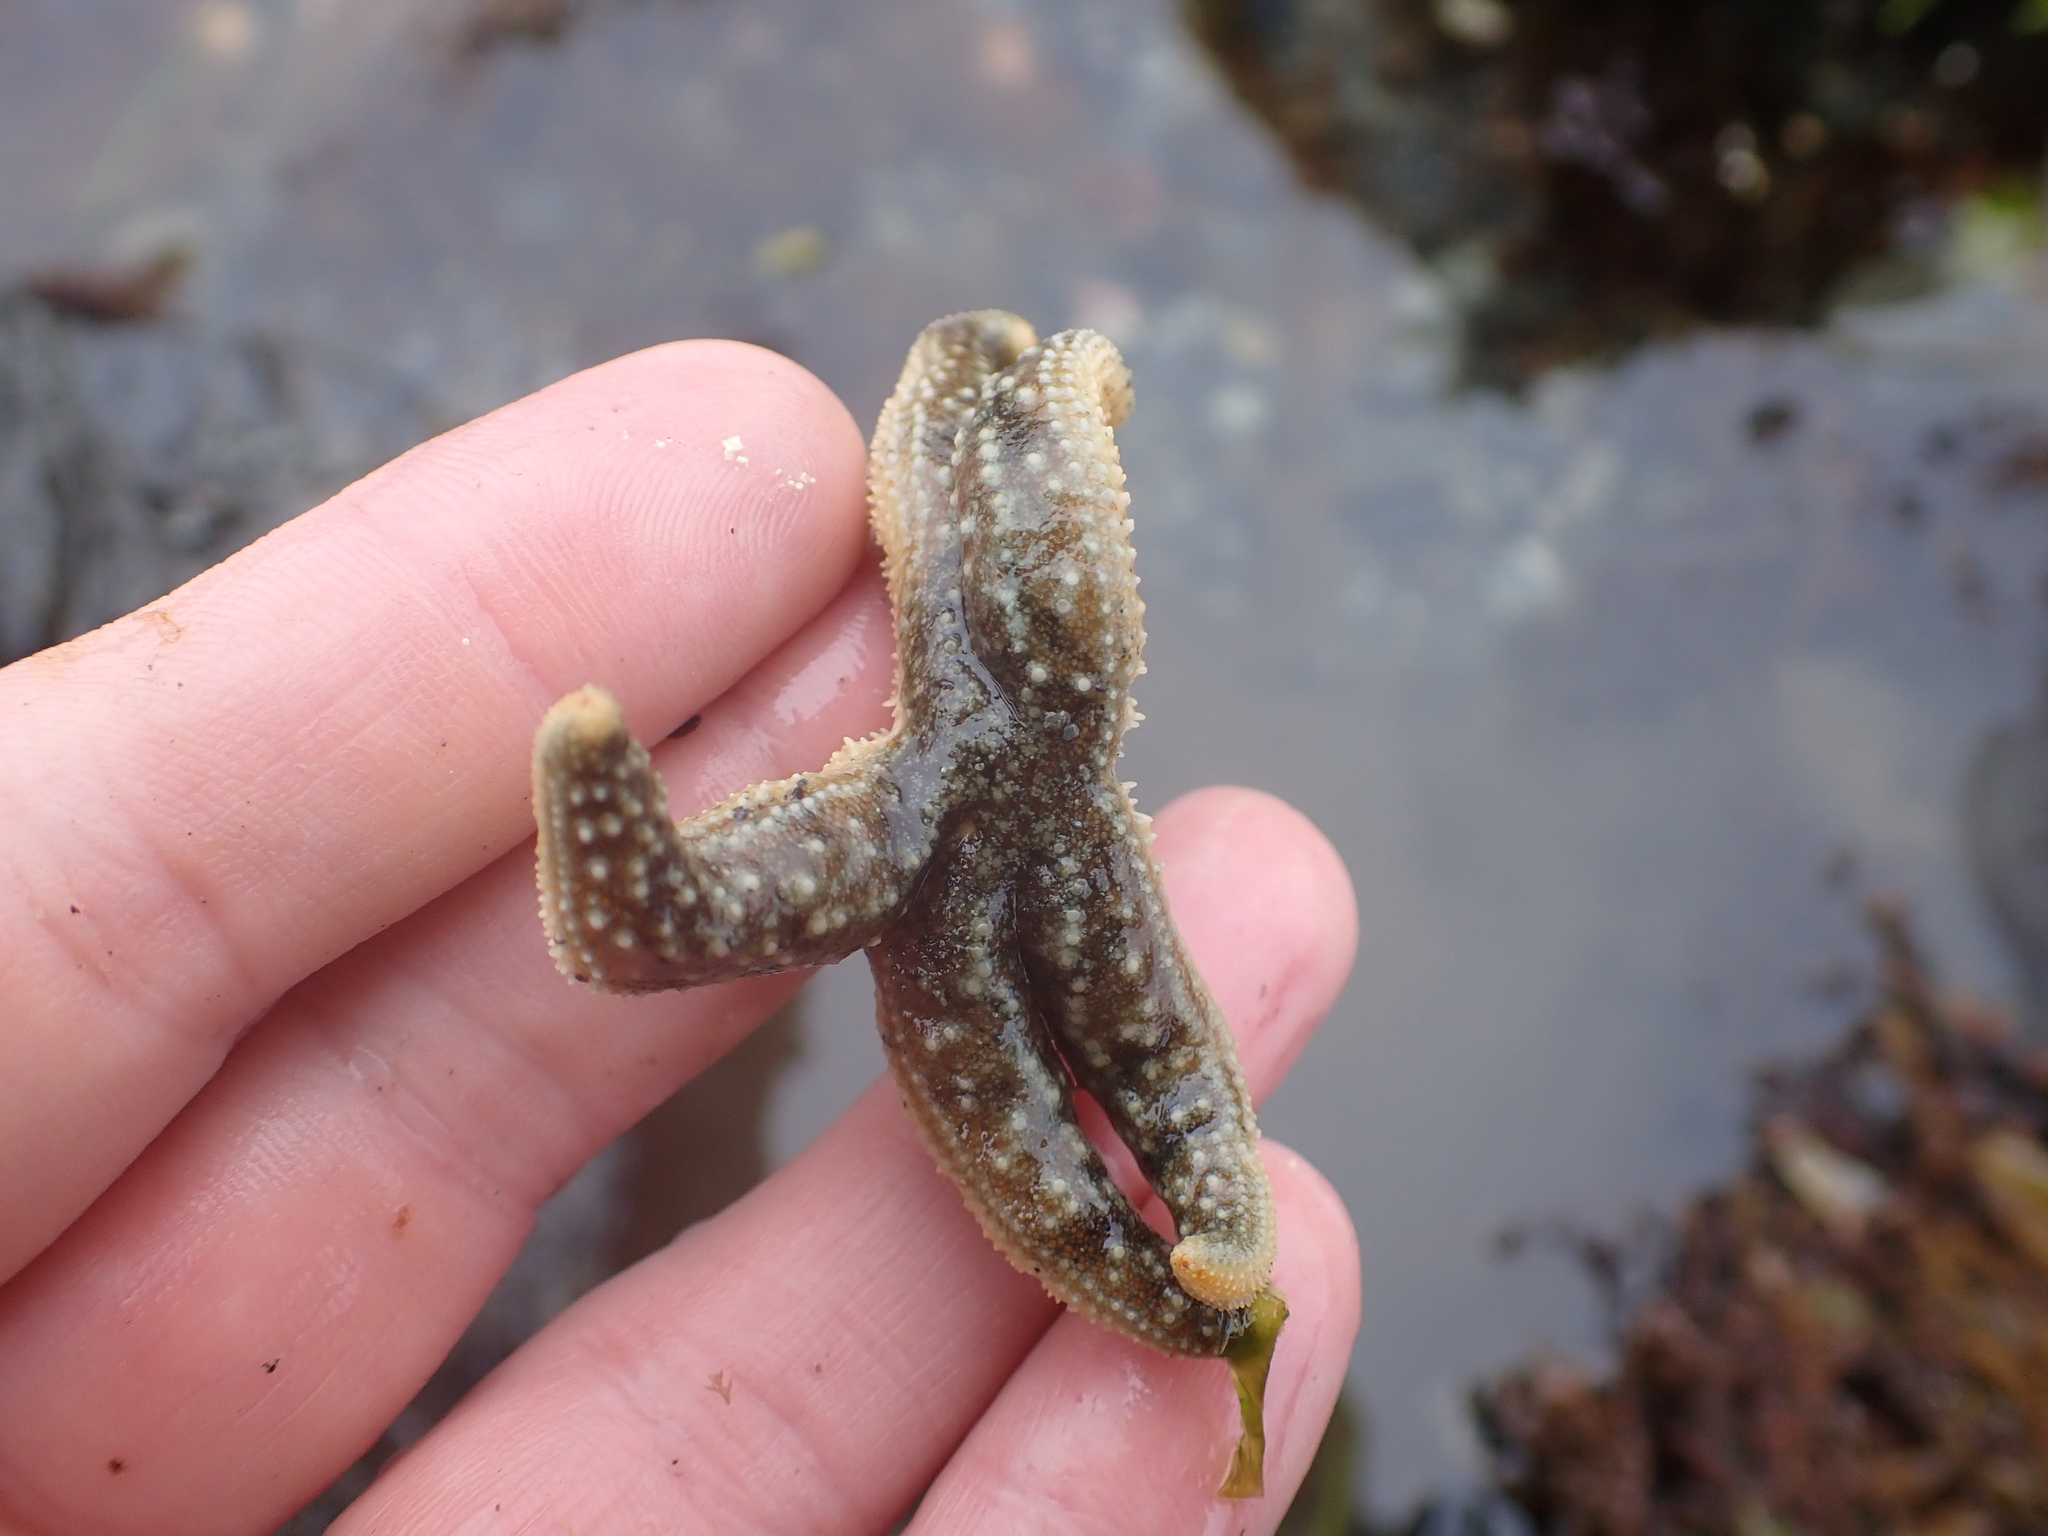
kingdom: Animalia
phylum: Echinodermata
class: Asteroidea
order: Forcipulatida
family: Asteriidae
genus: Evasterias
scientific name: Evasterias troschelii
